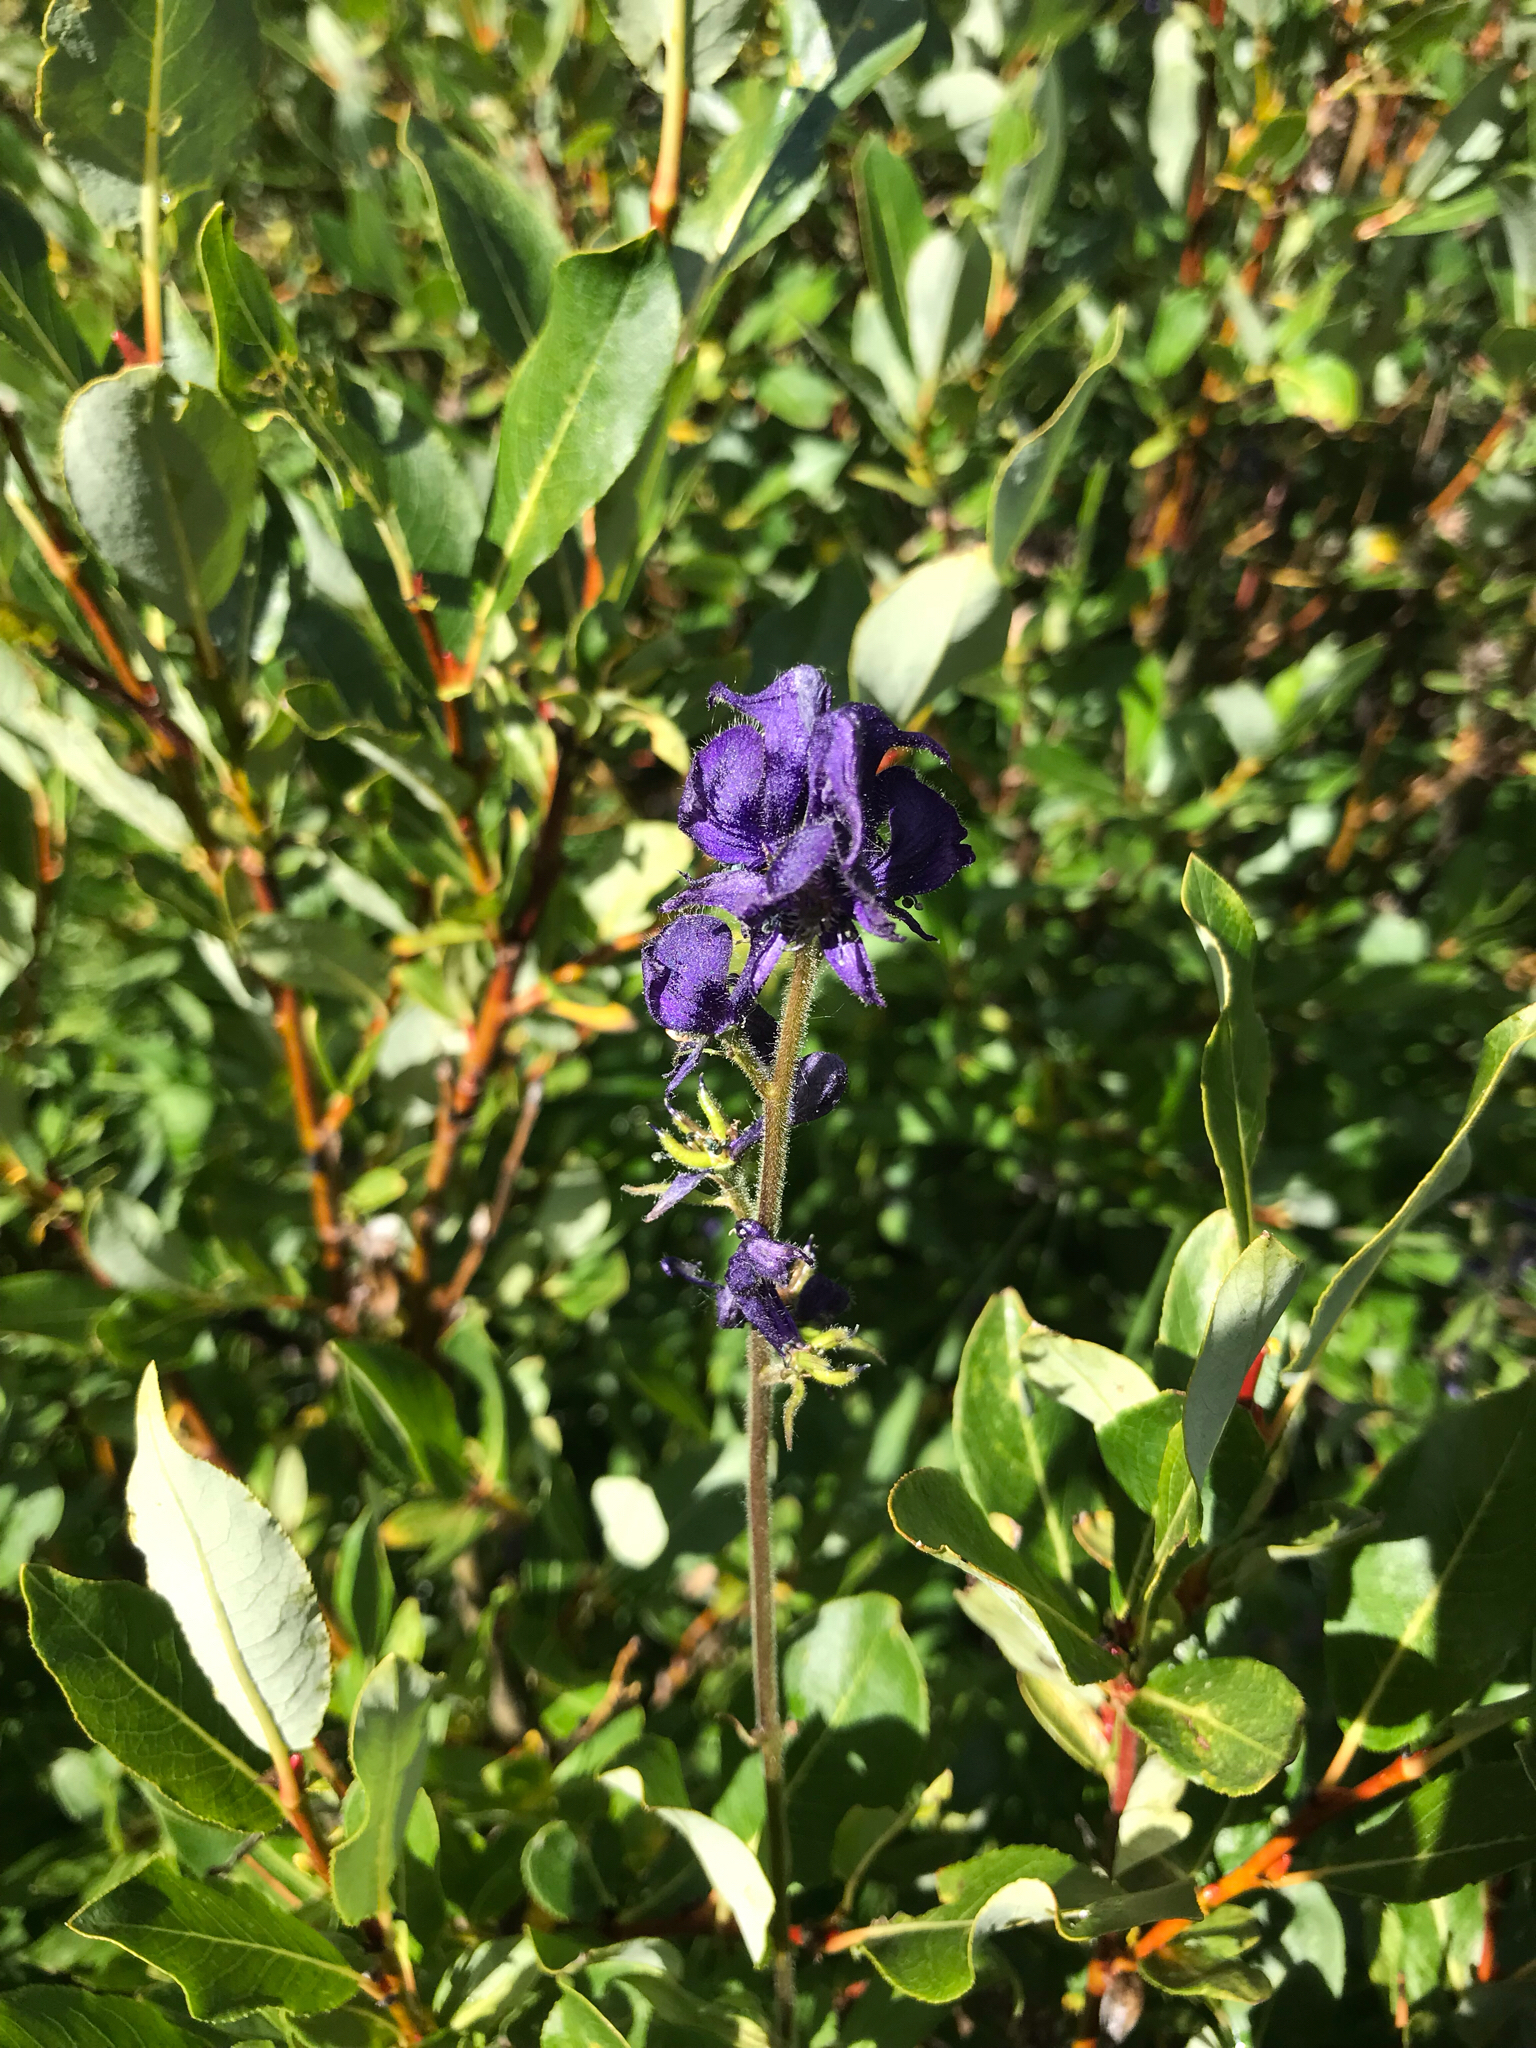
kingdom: Plantae
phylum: Tracheophyta
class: Magnoliopsida
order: Ranunculales
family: Ranunculaceae
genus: Aconitum
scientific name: Aconitum columbianum
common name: Columbia aconite
